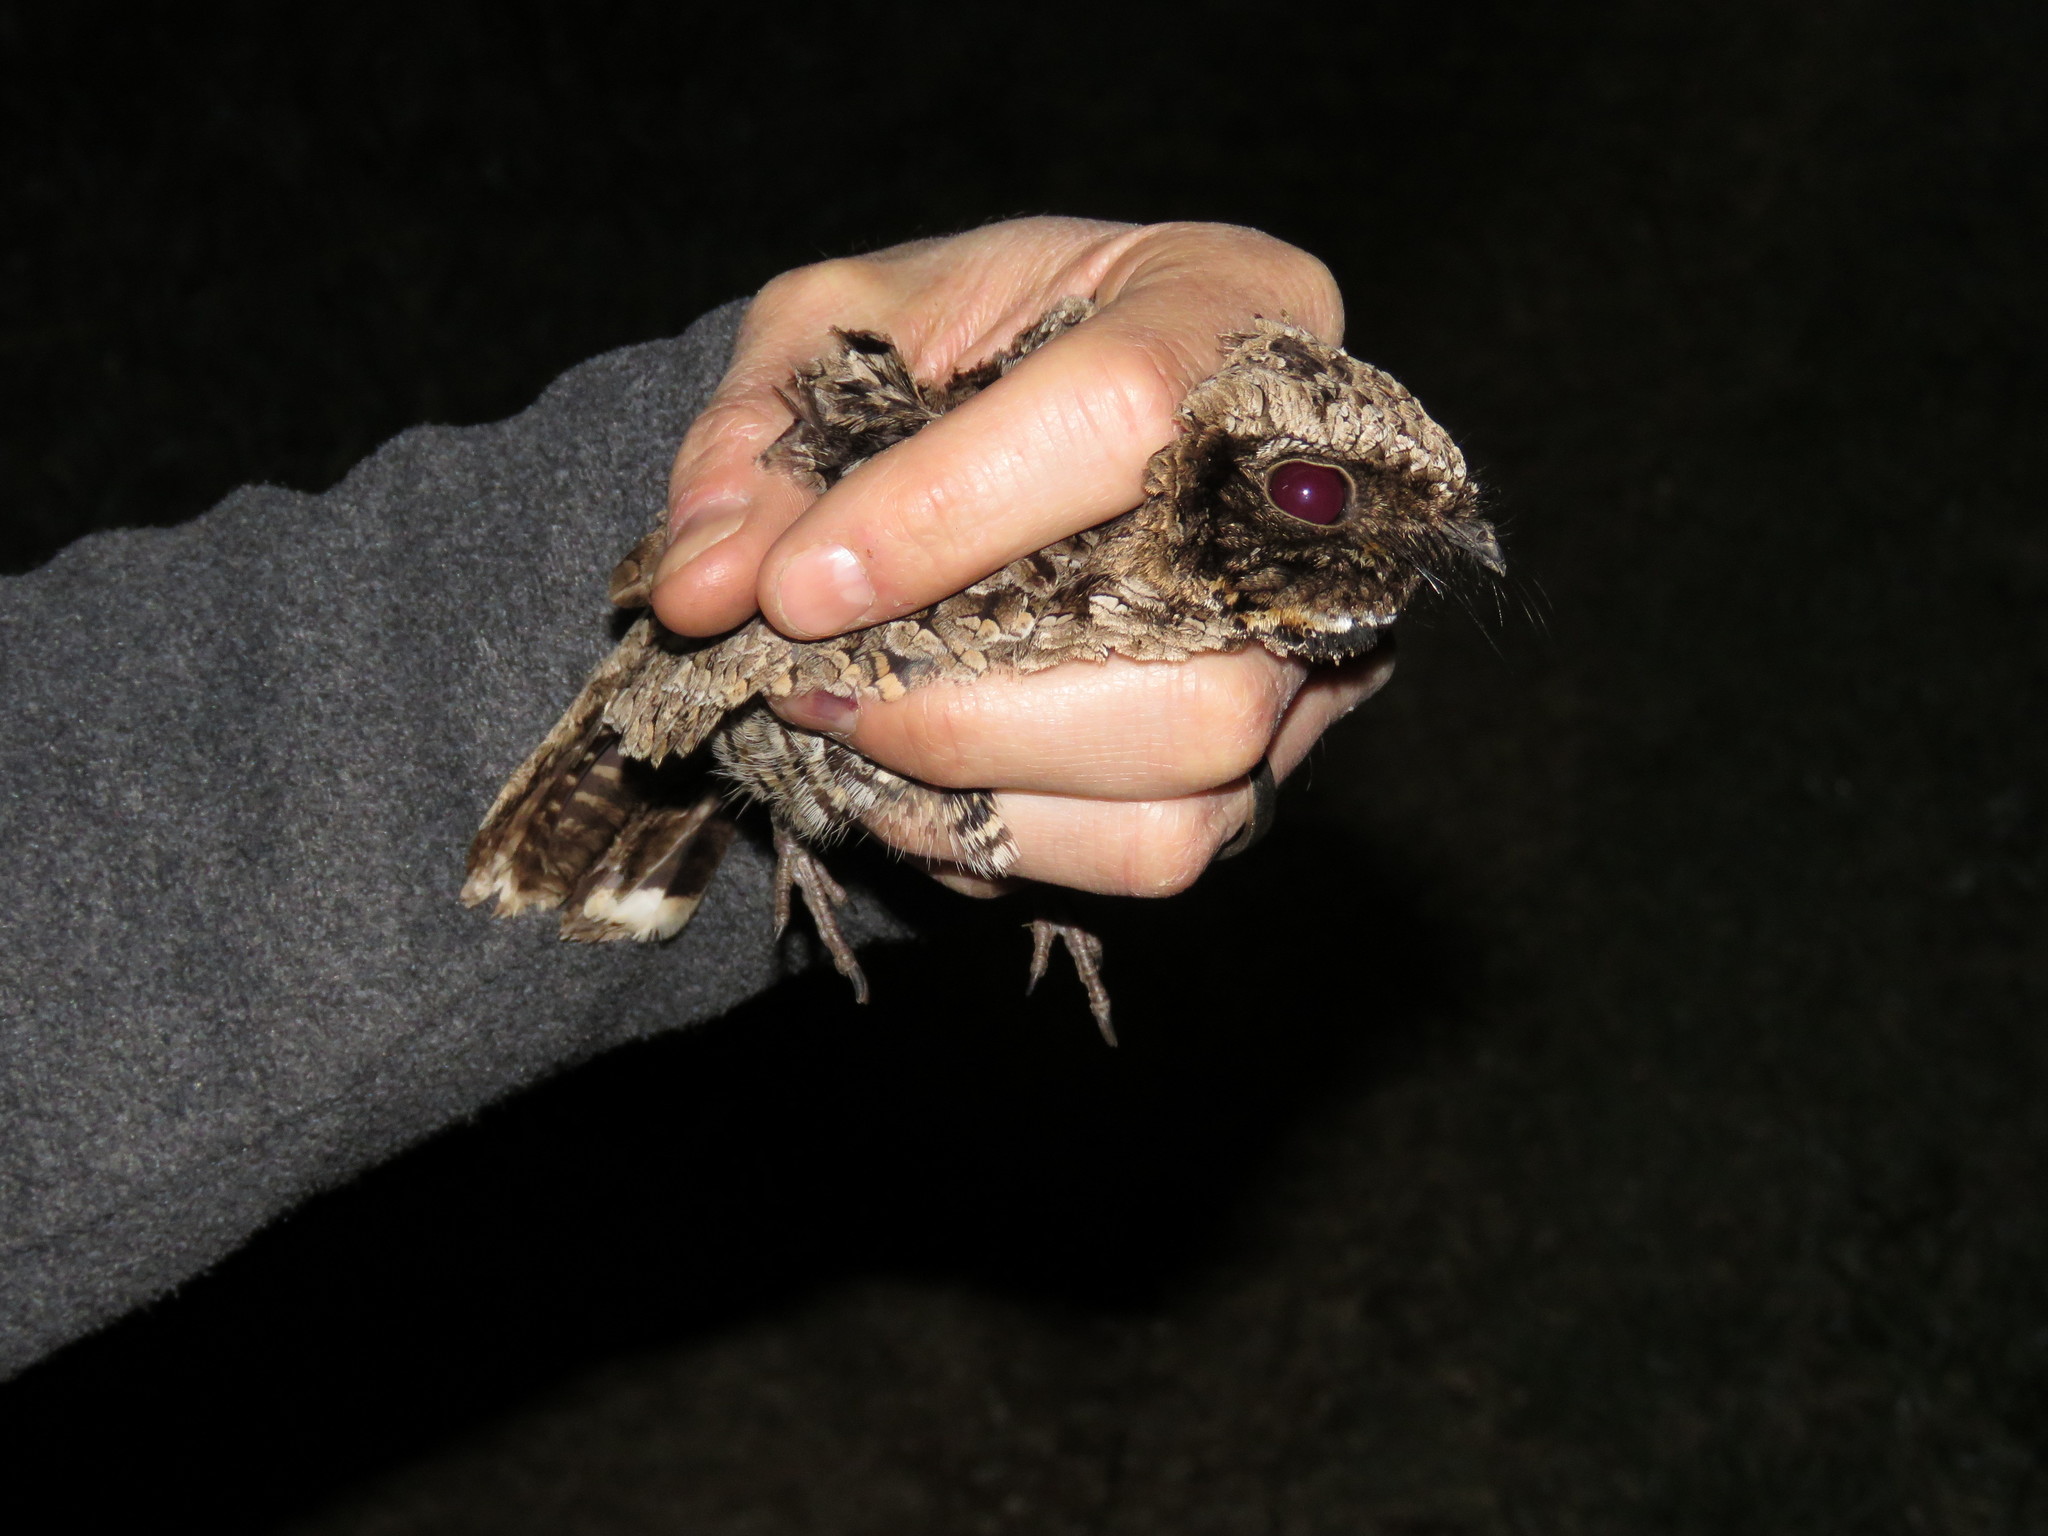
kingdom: Animalia
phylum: Chordata
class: Aves
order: Caprimulgiformes
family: Caprimulgidae
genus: Phalaenoptilus
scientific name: Phalaenoptilus nuttallii
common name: Common poorwill
